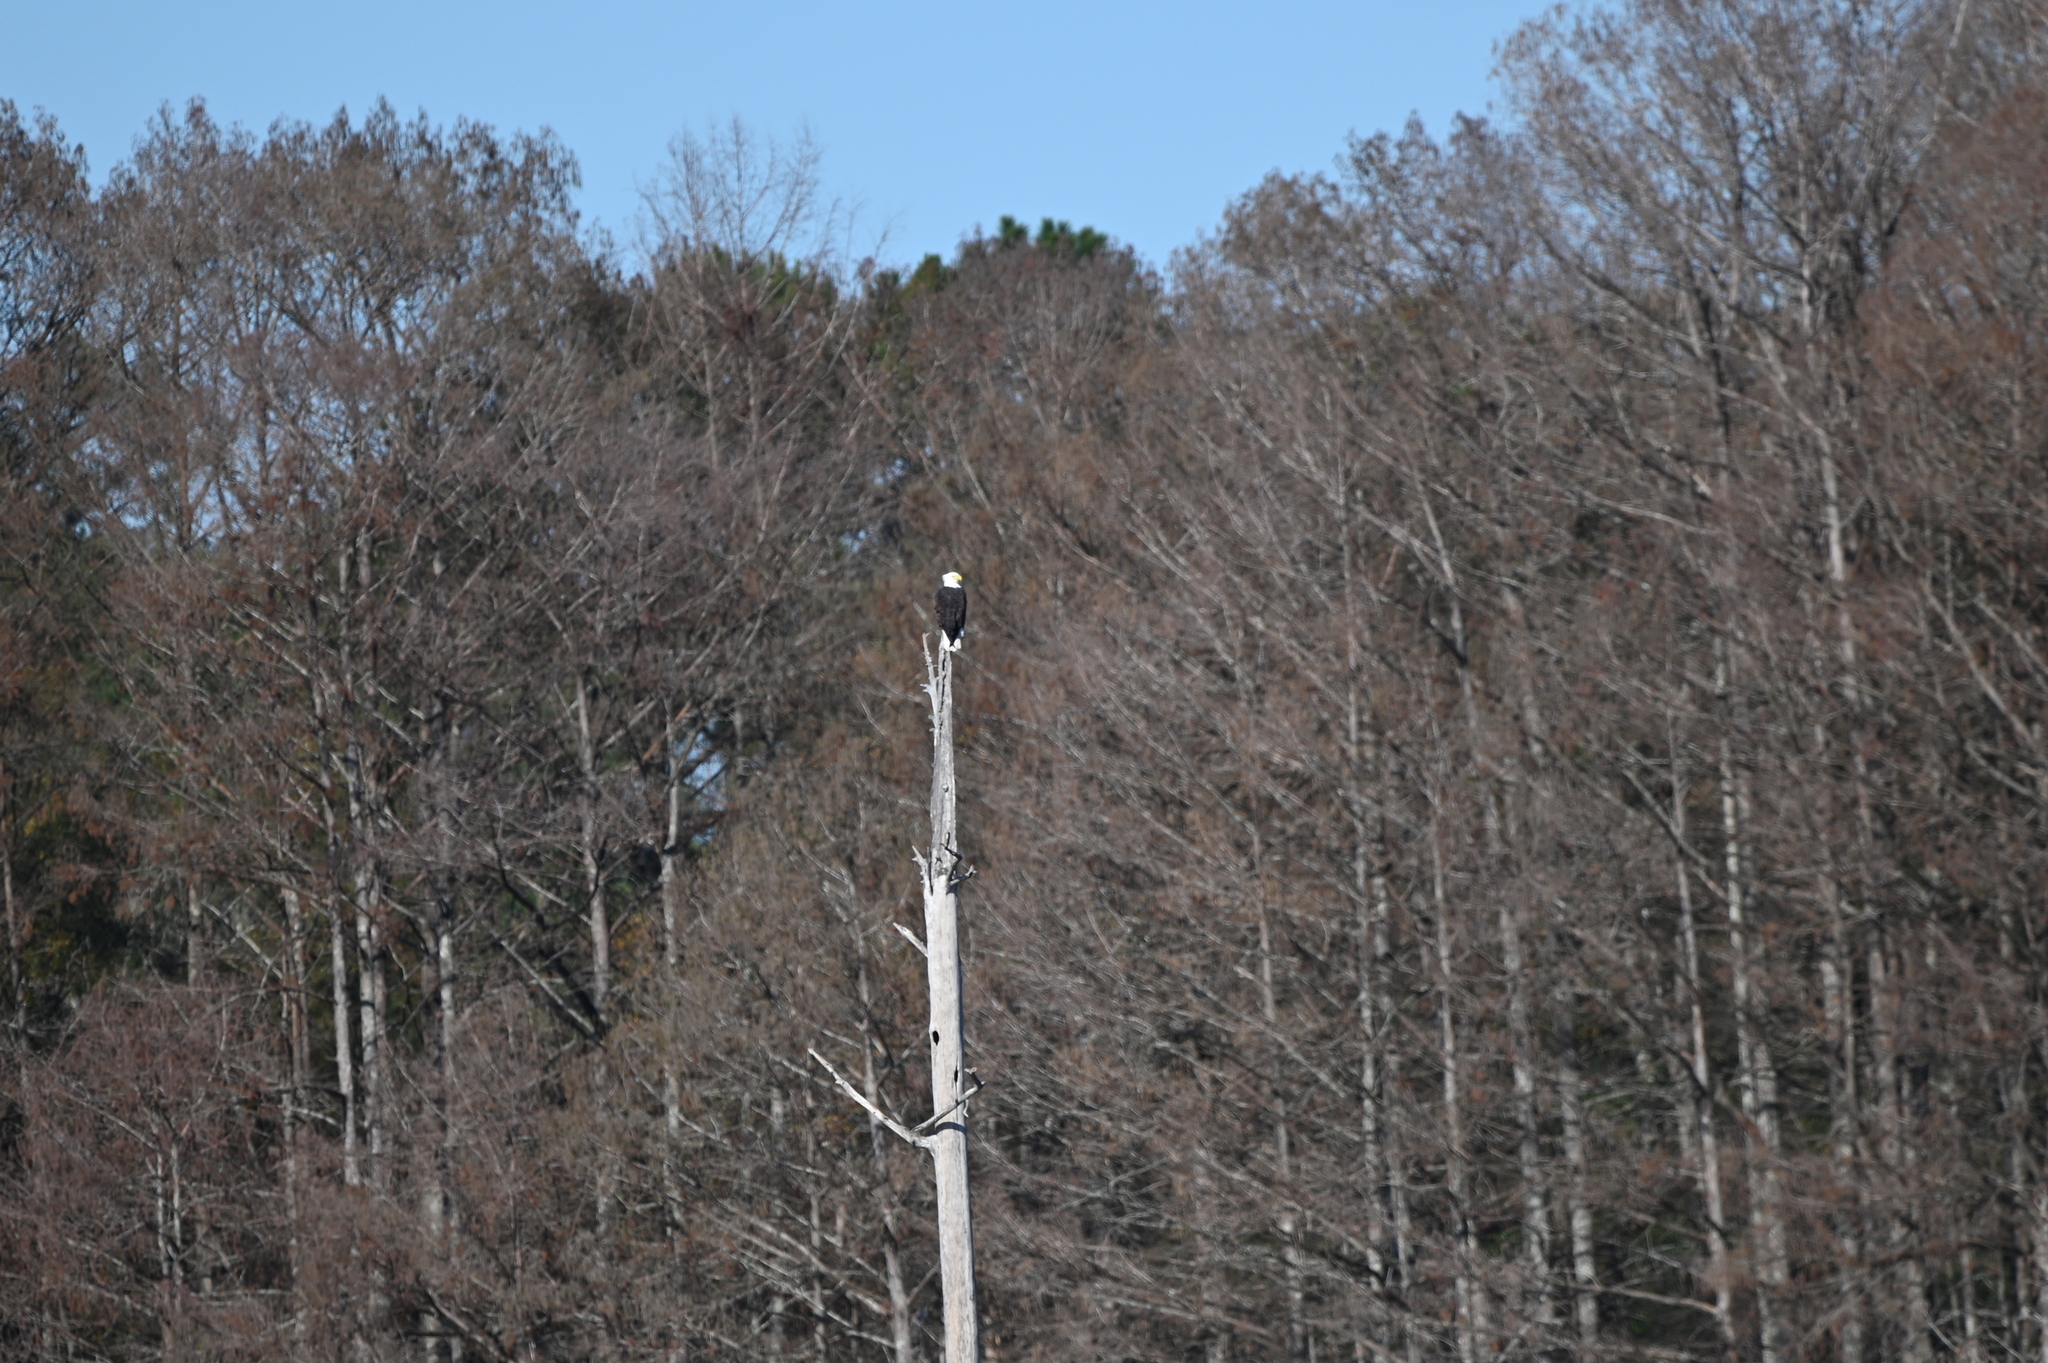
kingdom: Animalia
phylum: Chordata
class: Aves
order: Accipitriformes
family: Accipitridae
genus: Haliaeetus
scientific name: Haliaeetus leucocephalus
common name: Bald eagle
